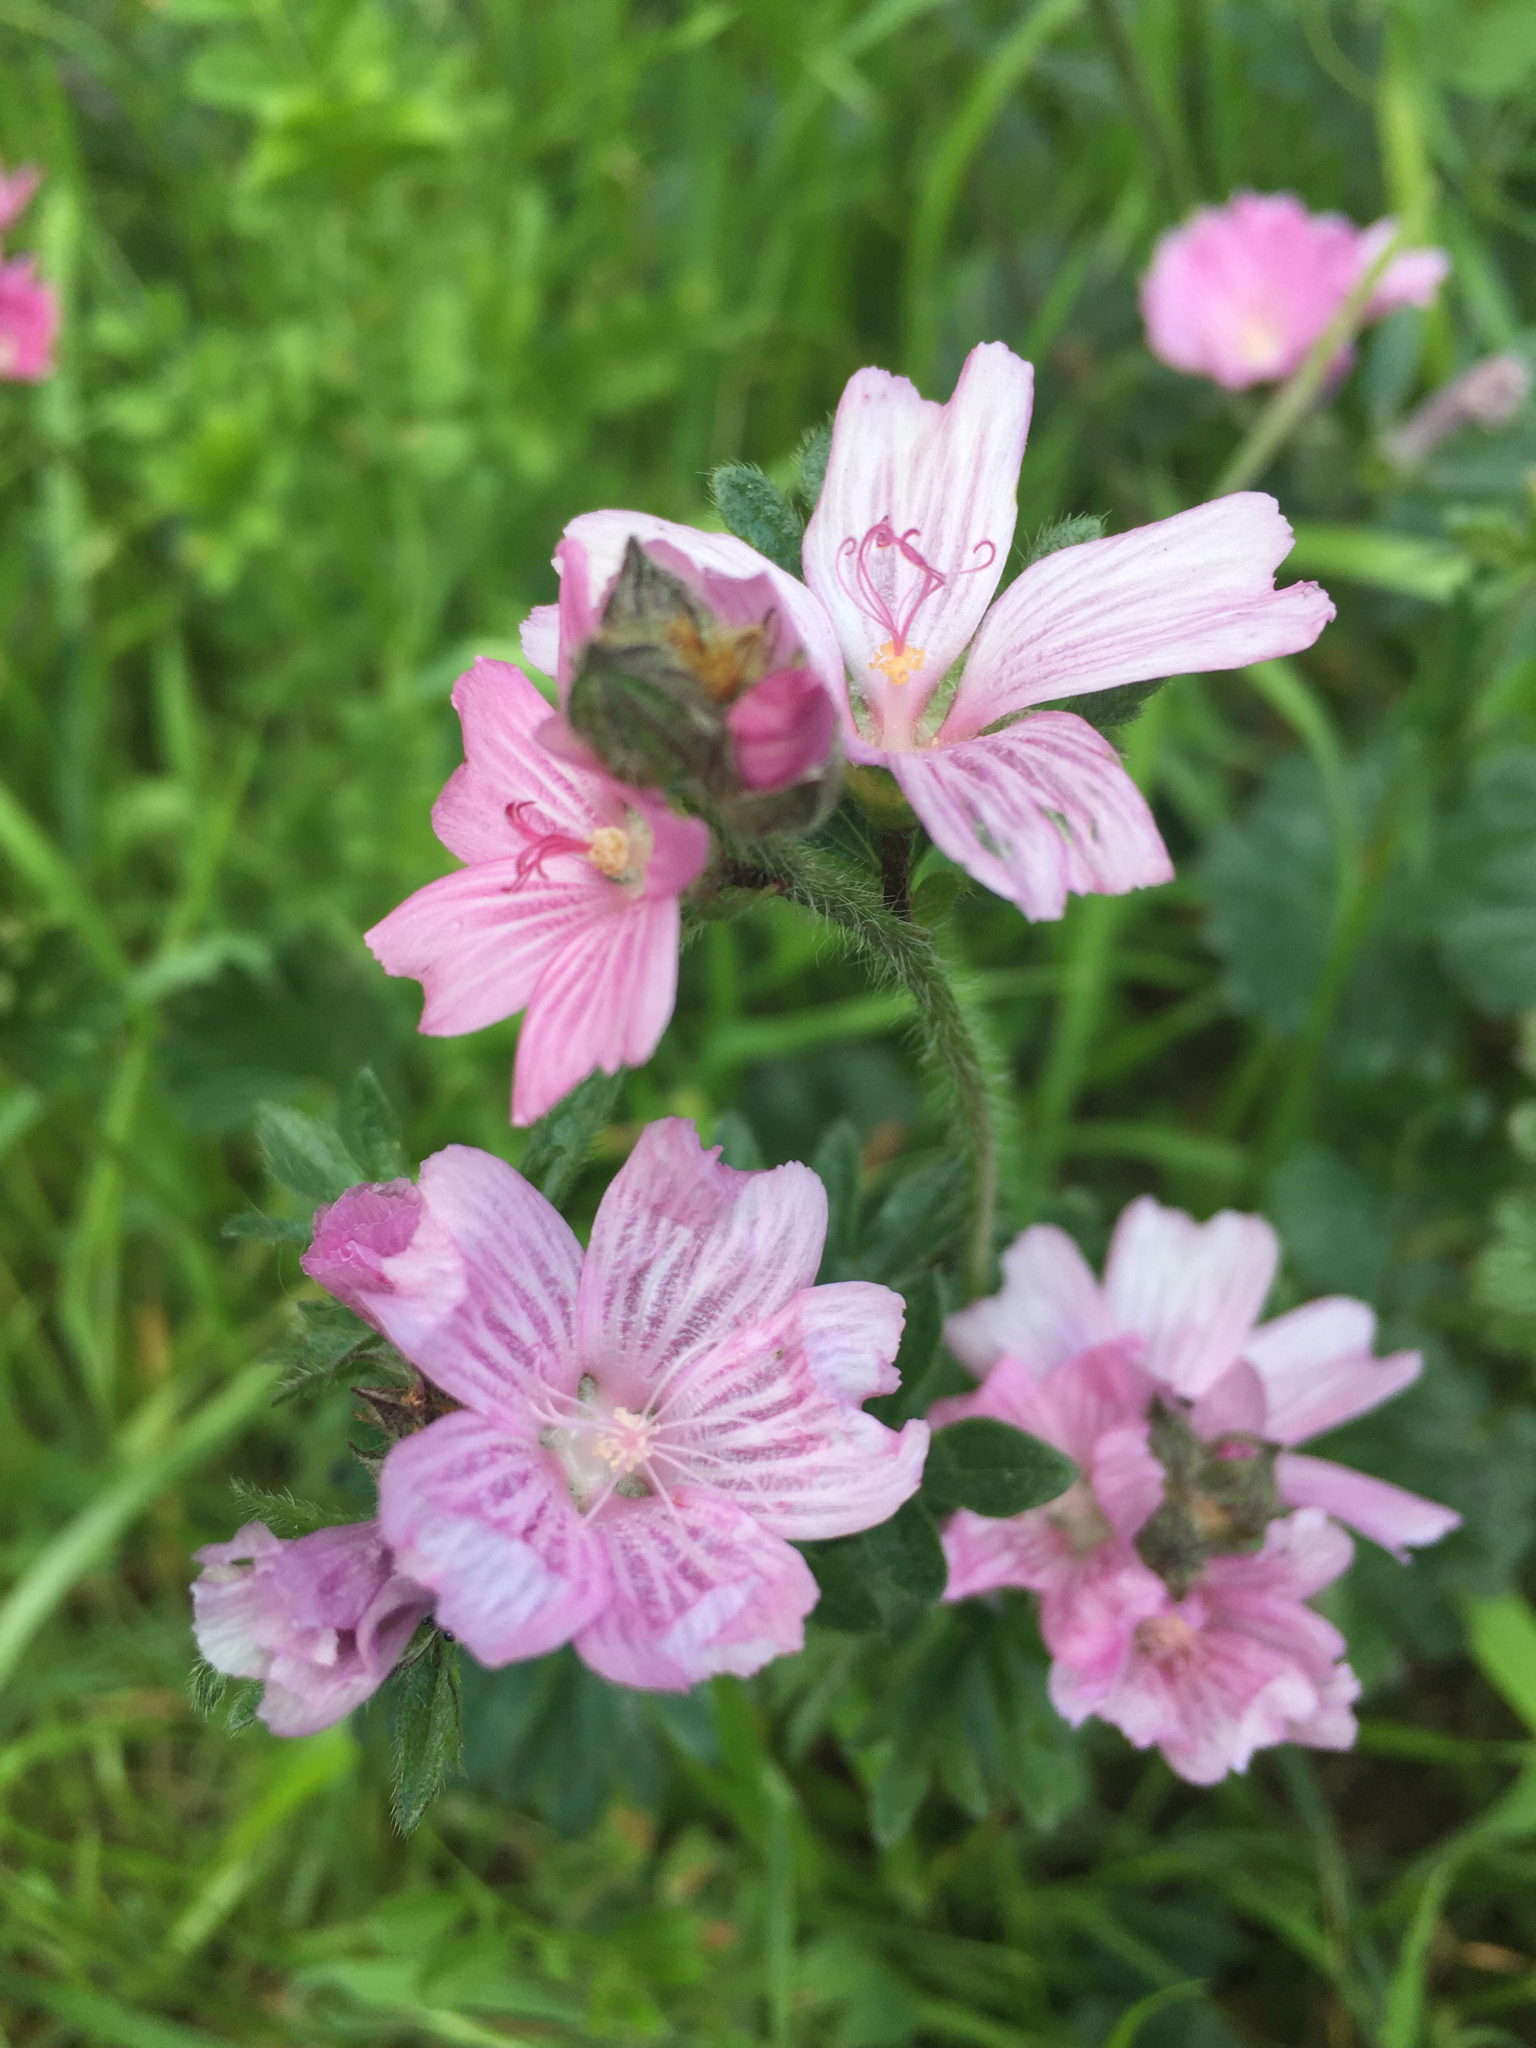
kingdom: Plantae
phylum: Tracheophyta
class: Magnoliopsida
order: Malvales
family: Malvaceae
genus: Sidalcea
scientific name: Sidalcea malviflora
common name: Greek mallow
